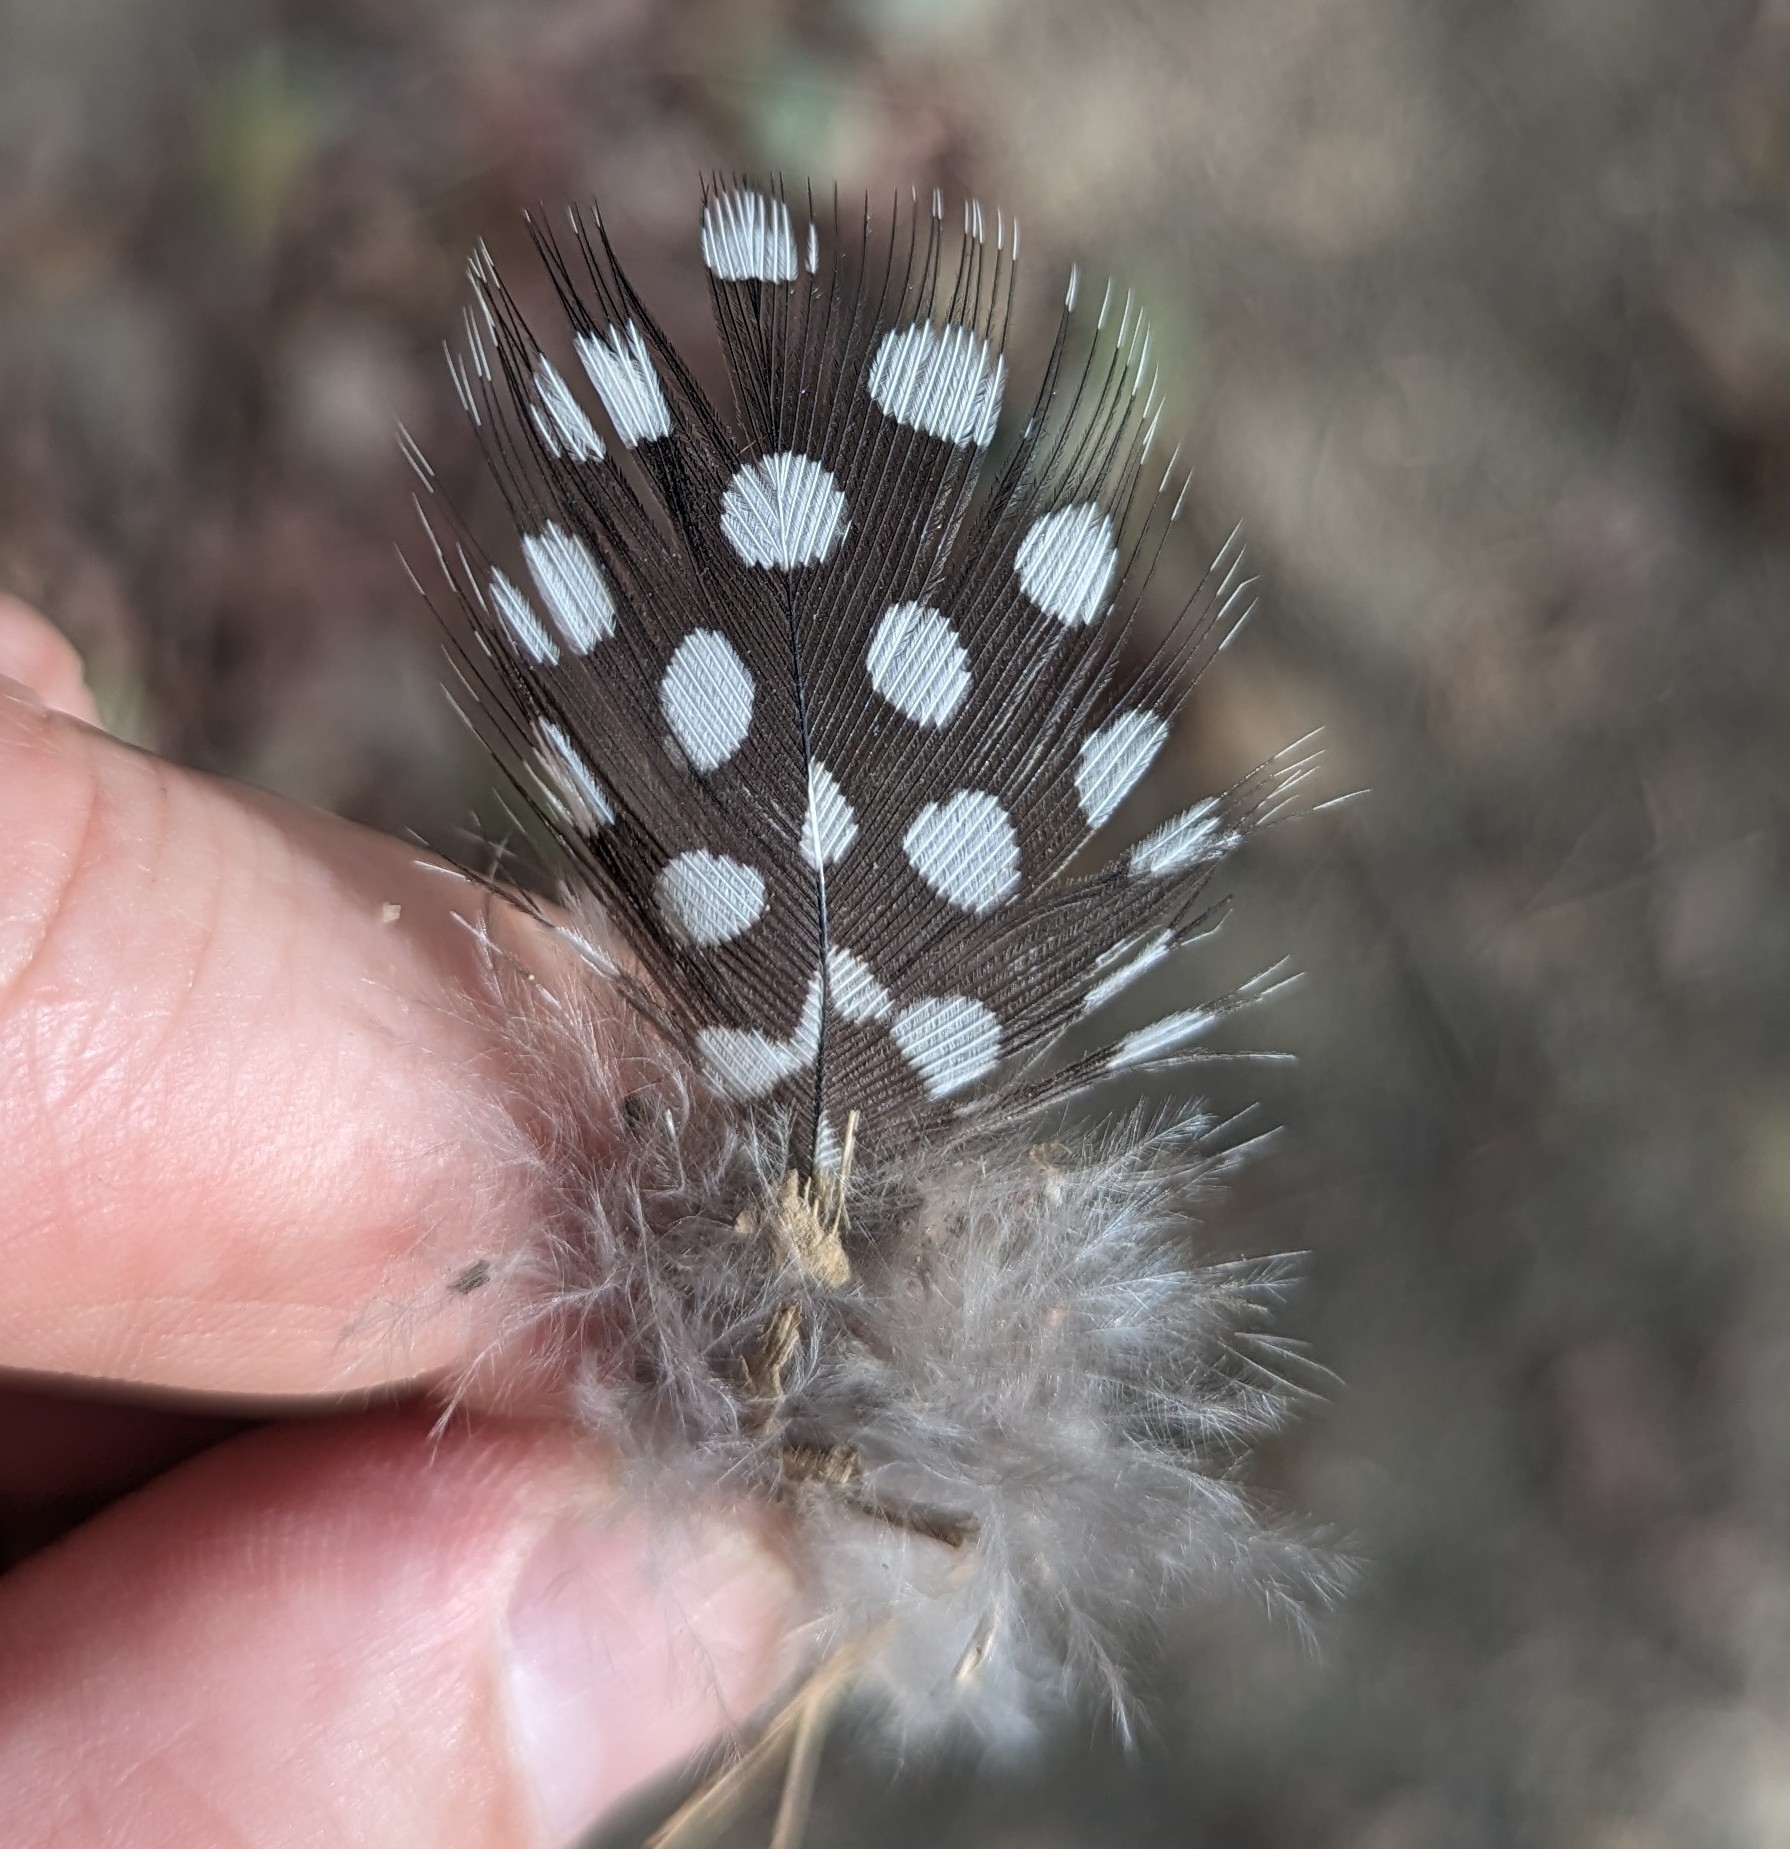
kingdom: Animalia
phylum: Chordata
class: Aves
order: Galliformes
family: Numididae
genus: Numida
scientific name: Numida meleagris
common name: Helmeted guineafowl
